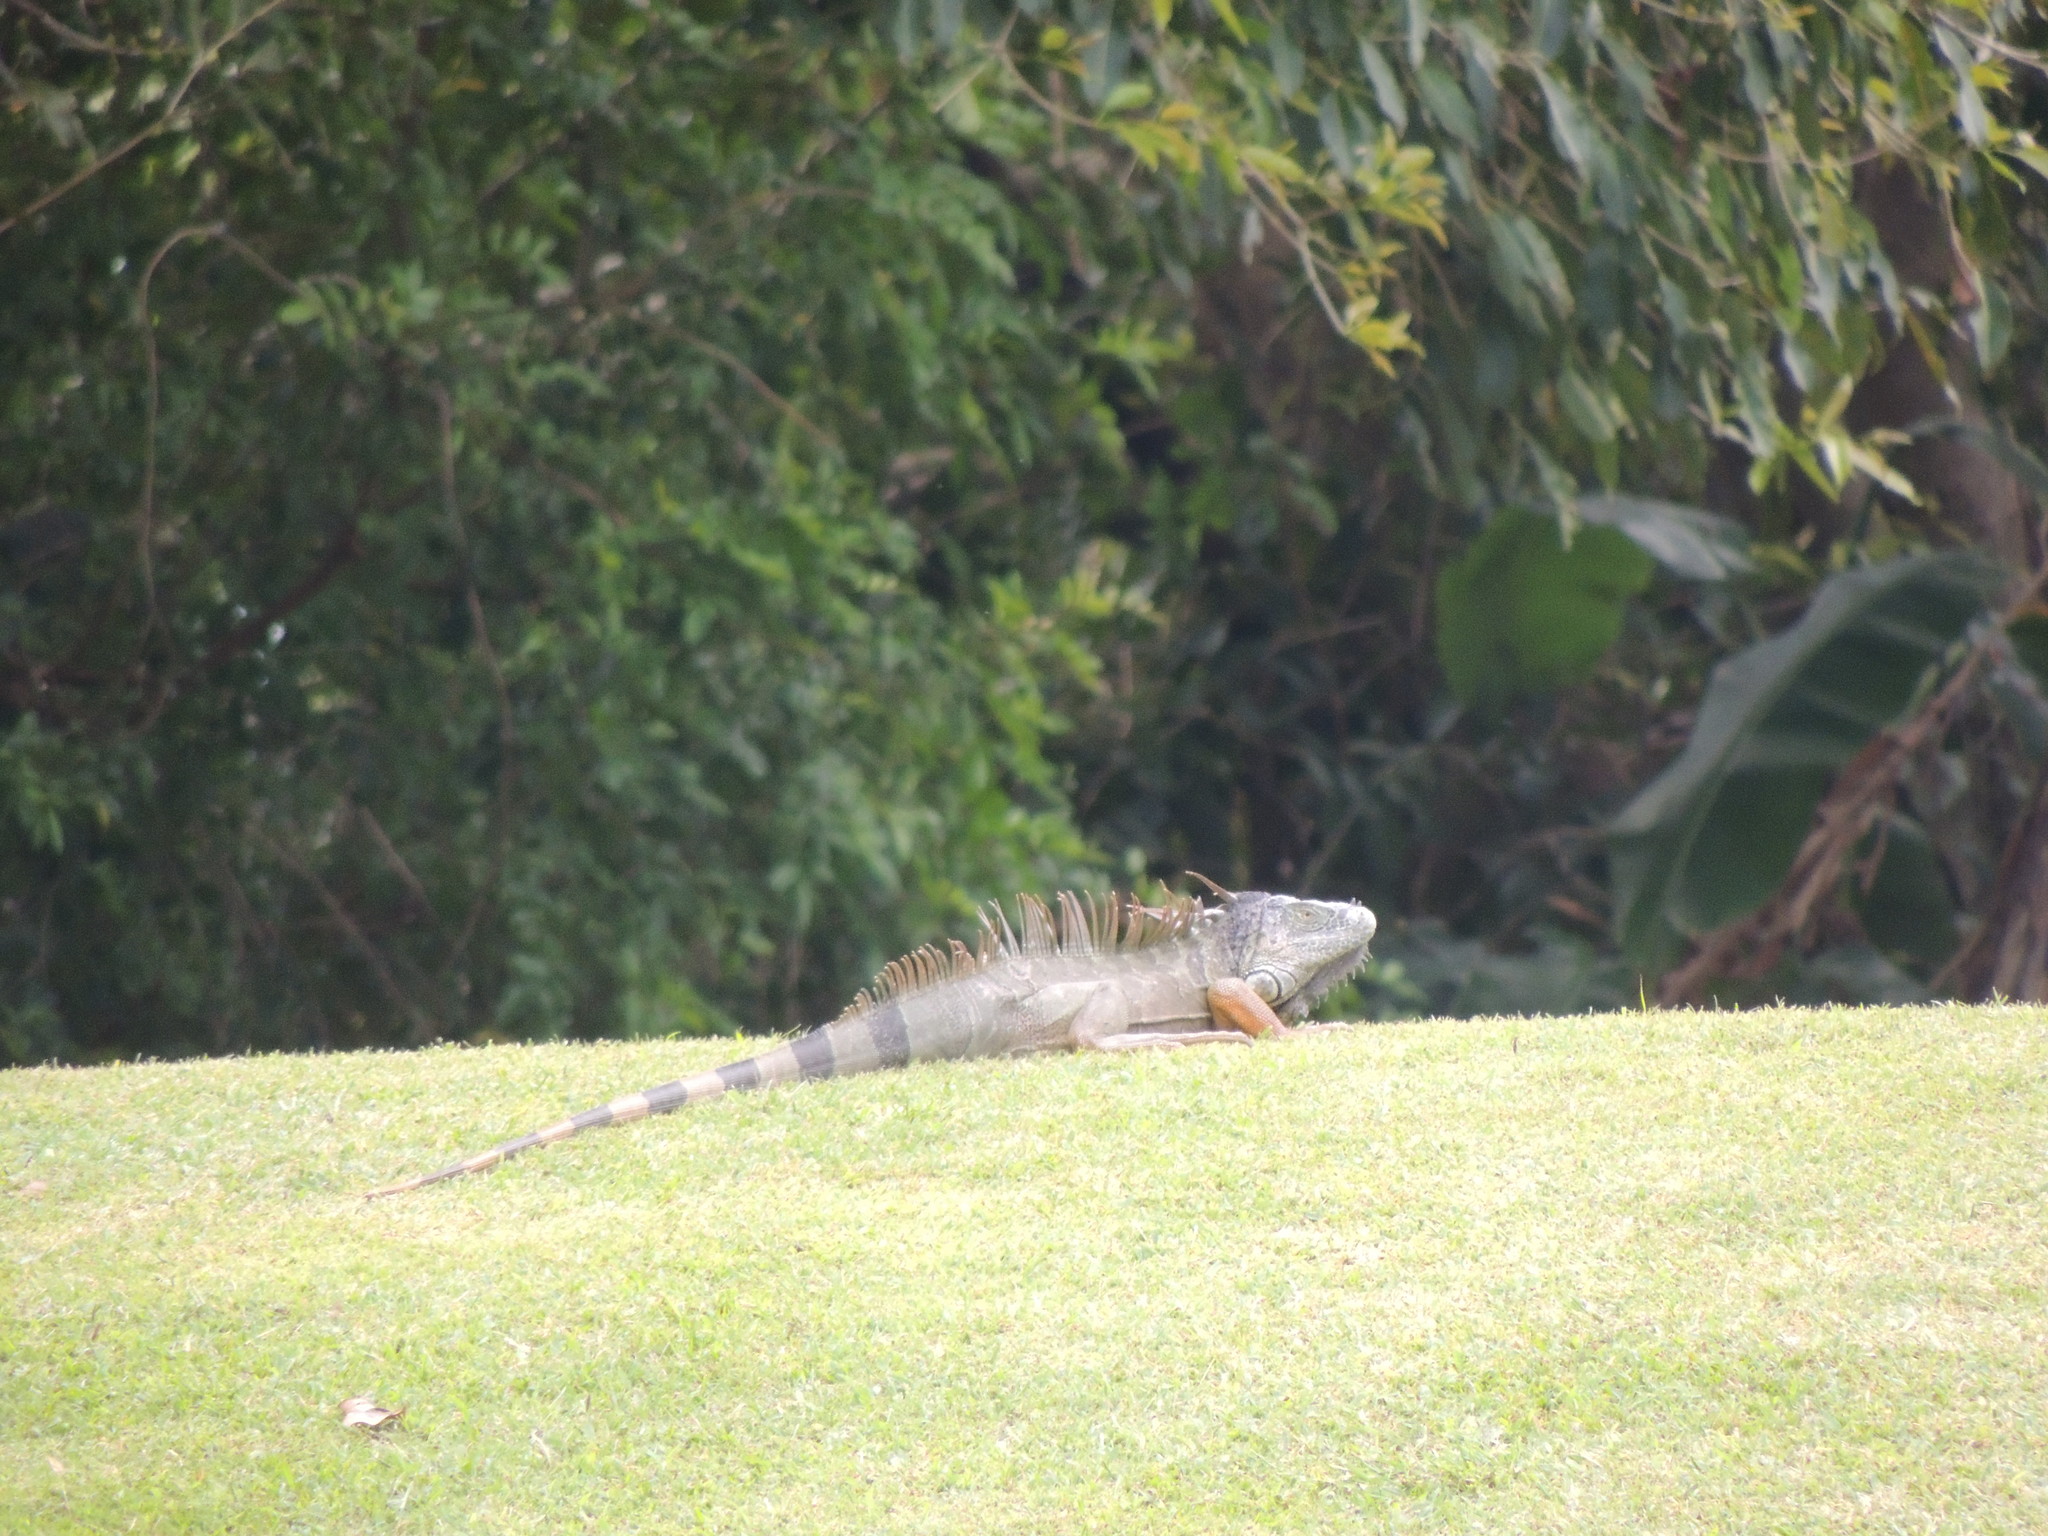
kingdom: Animalia
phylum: Chordata
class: Squamata
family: Iguanidae
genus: Iguana
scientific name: Iguana iguana
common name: Green iguana
